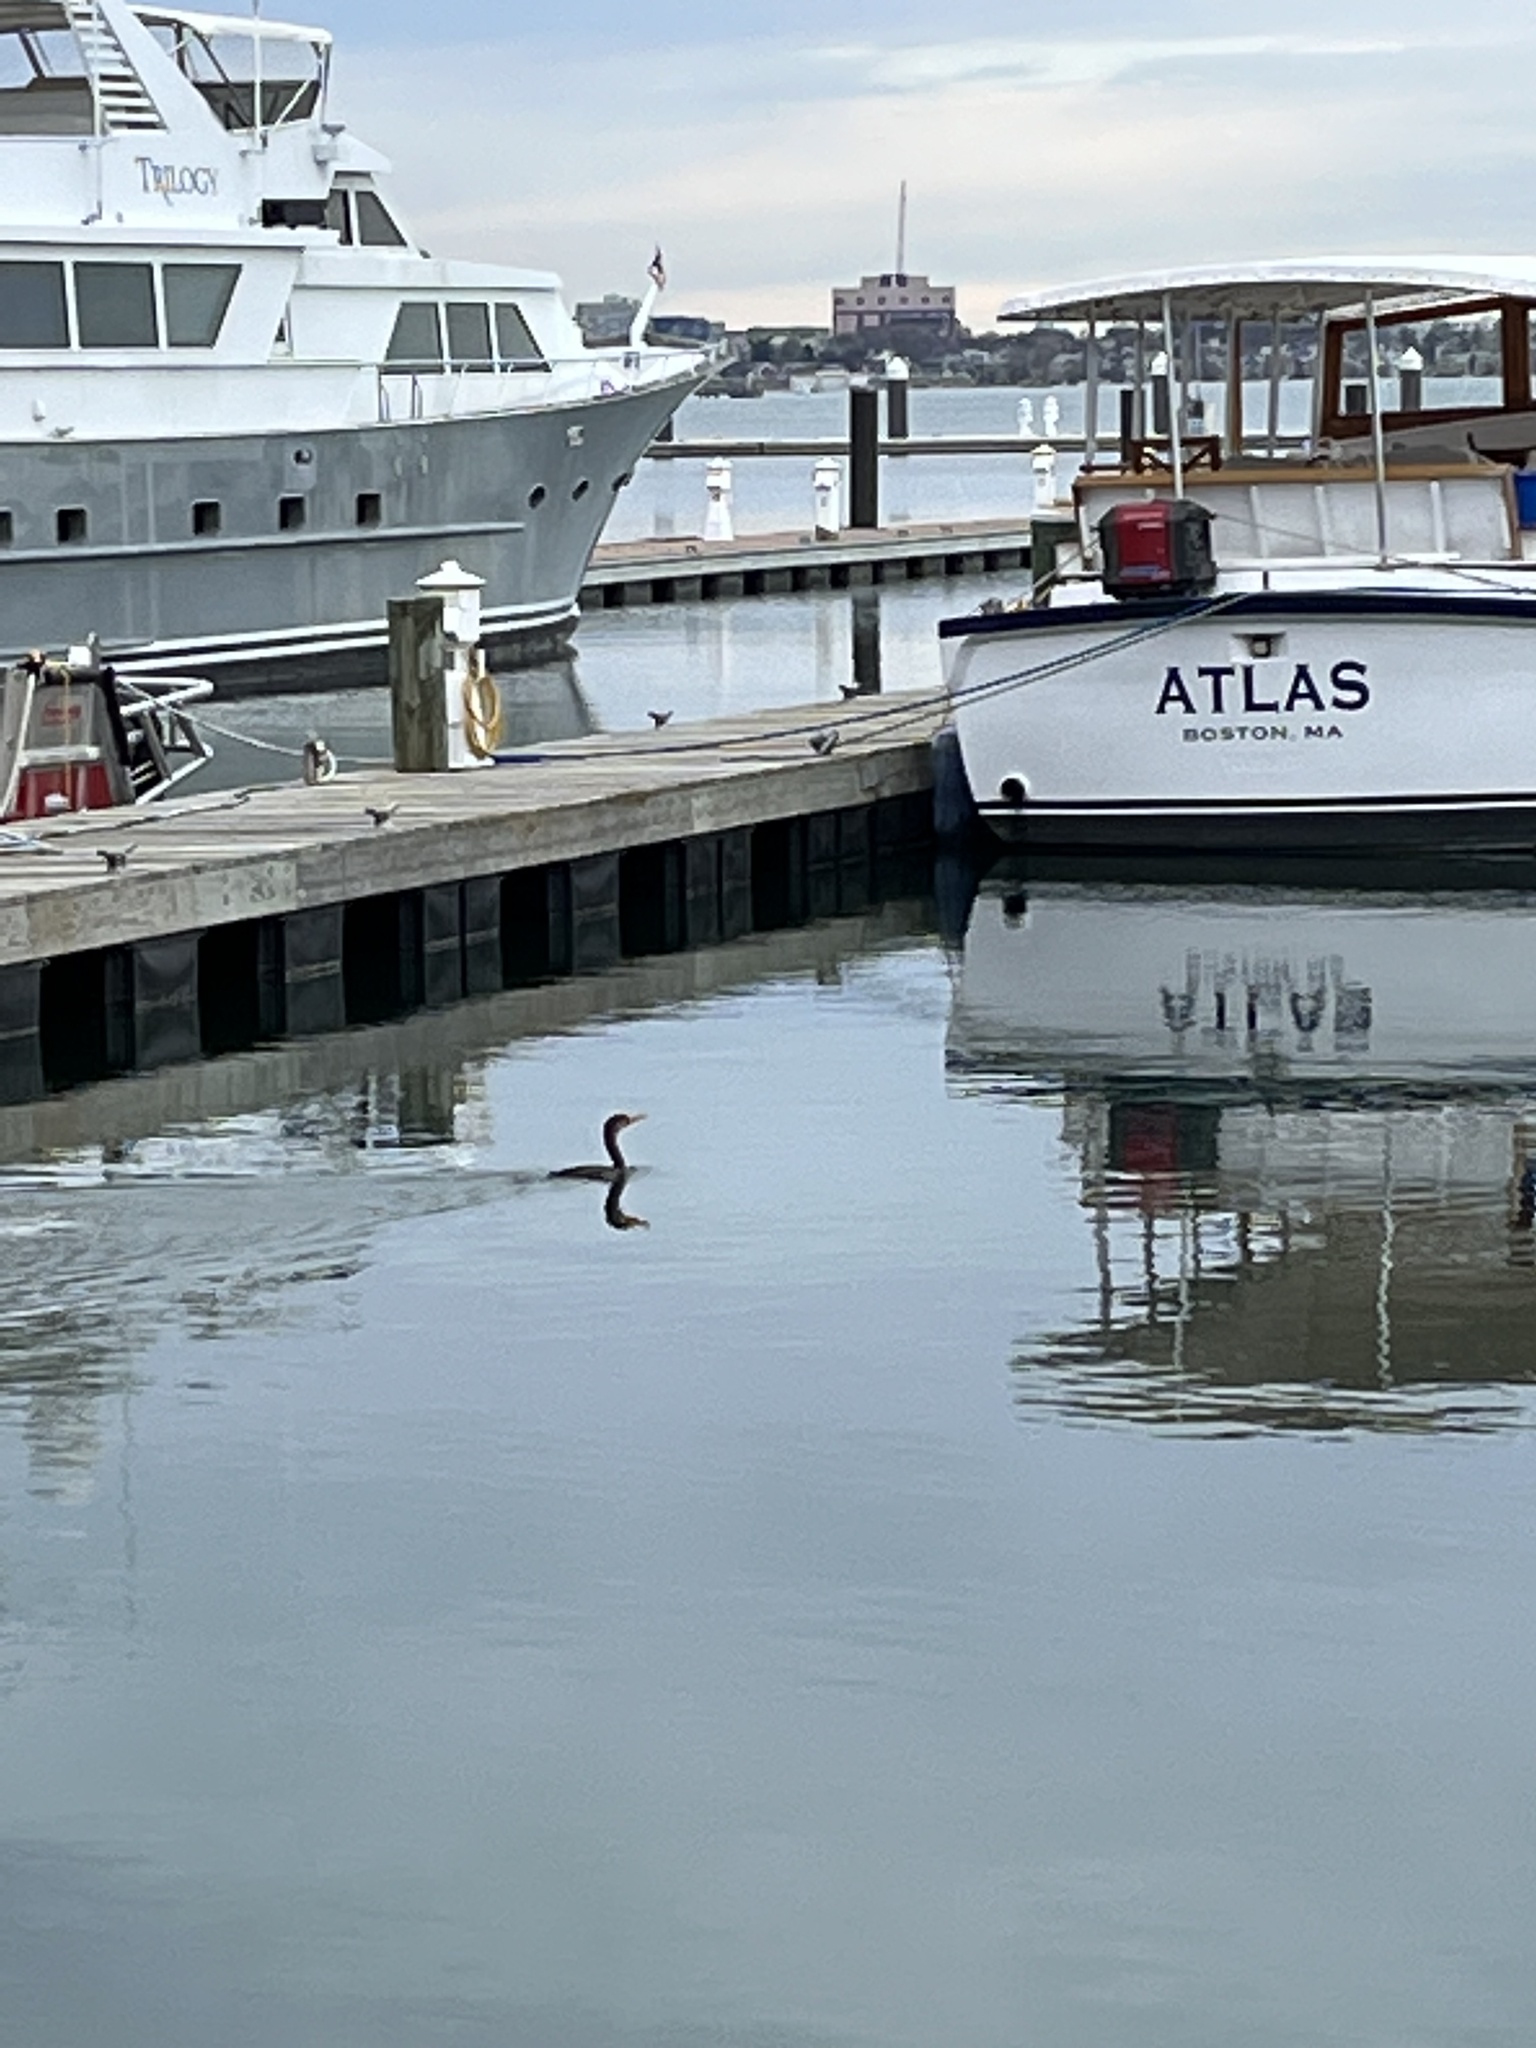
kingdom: Animalia
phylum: Chordata
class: Aves
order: Suliformes
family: Phalacrocoracidae
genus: Phalacrocorax
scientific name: Phalacrocorax auritus
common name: Double-crested cormorant
